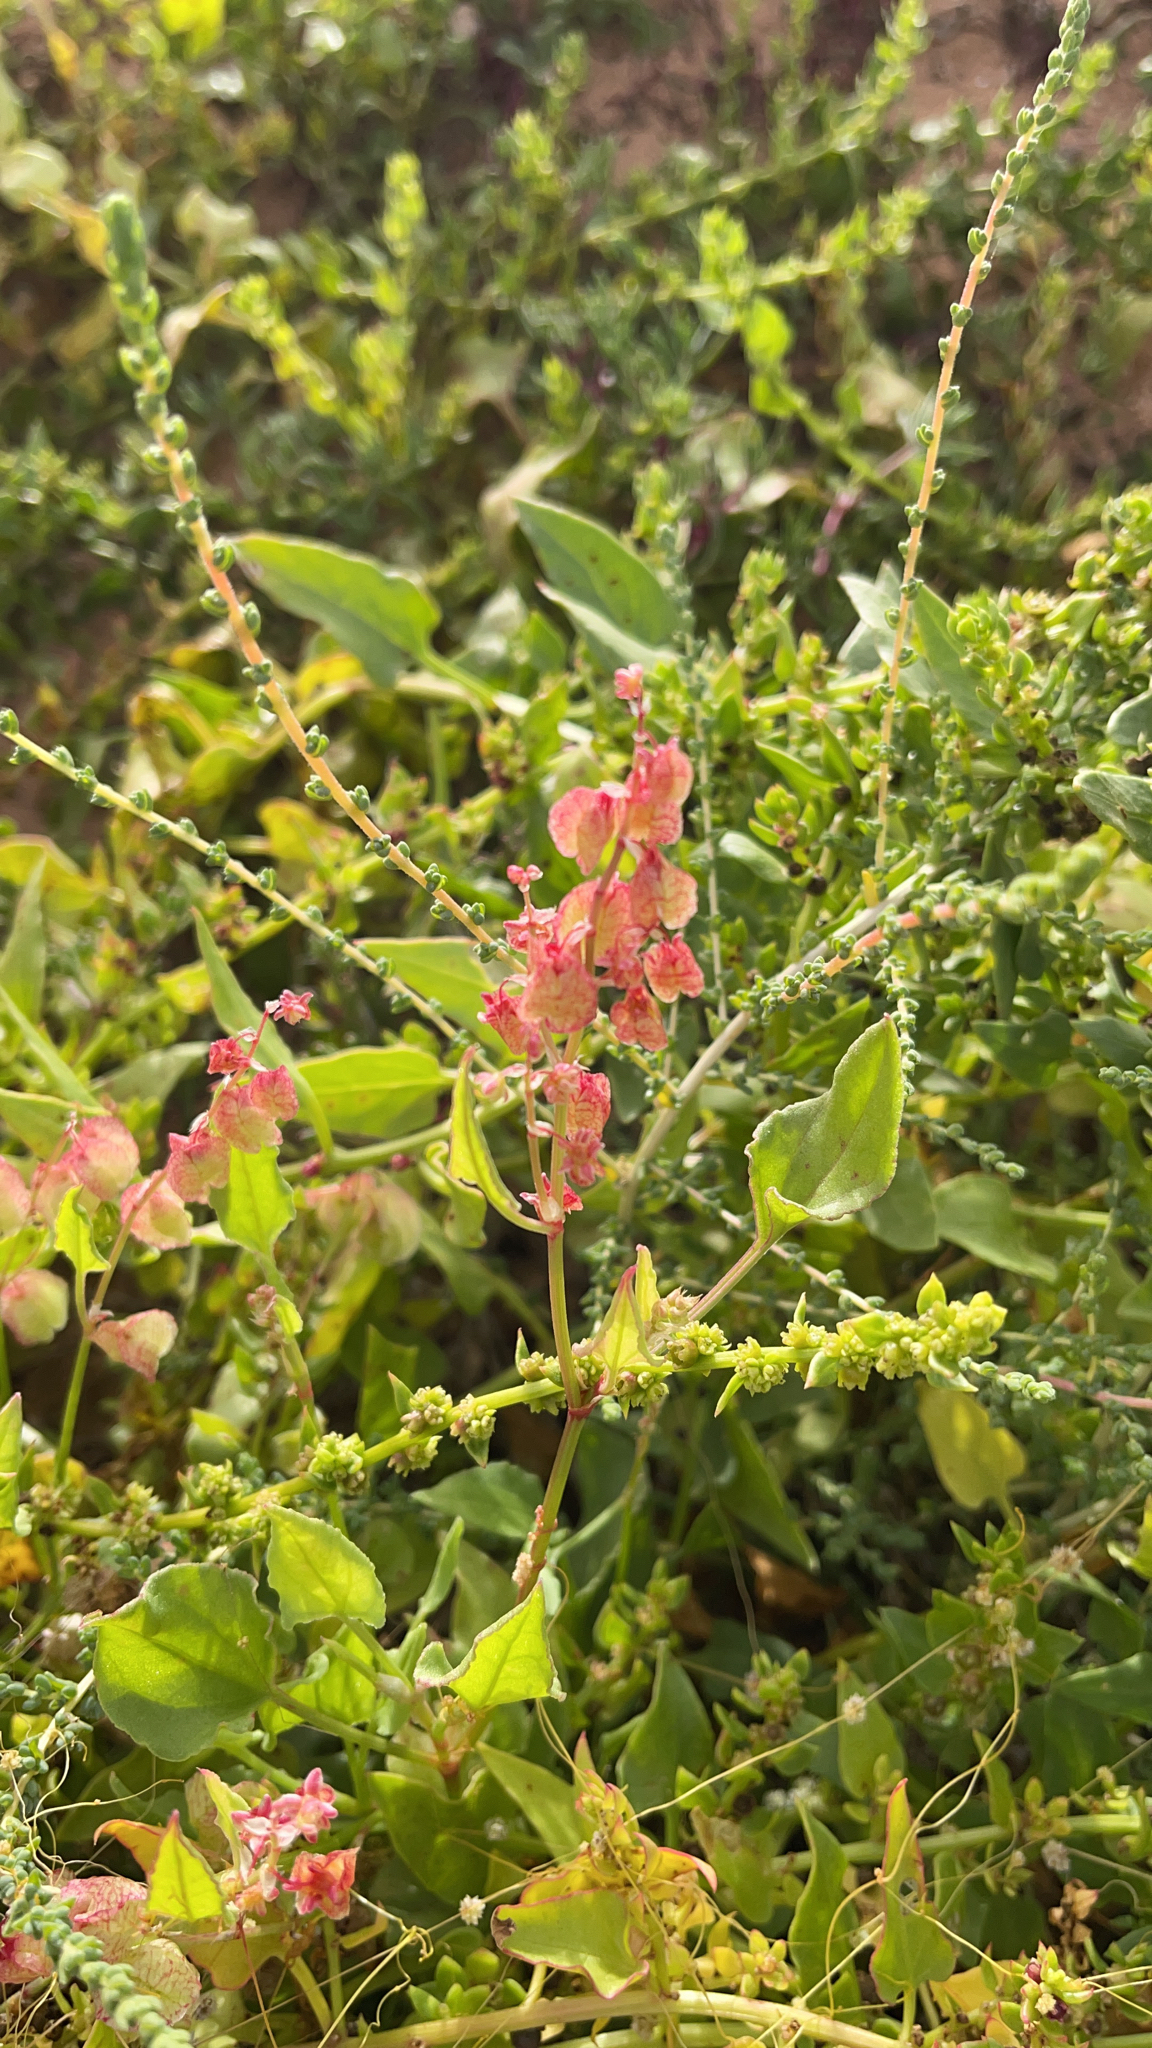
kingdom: Plantae
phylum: Tracheophyta
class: Magnoliopsida
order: Caryophyllales
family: Polygonaceae
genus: Rumex
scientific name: Rumex vesicarius
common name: Bladder dock
